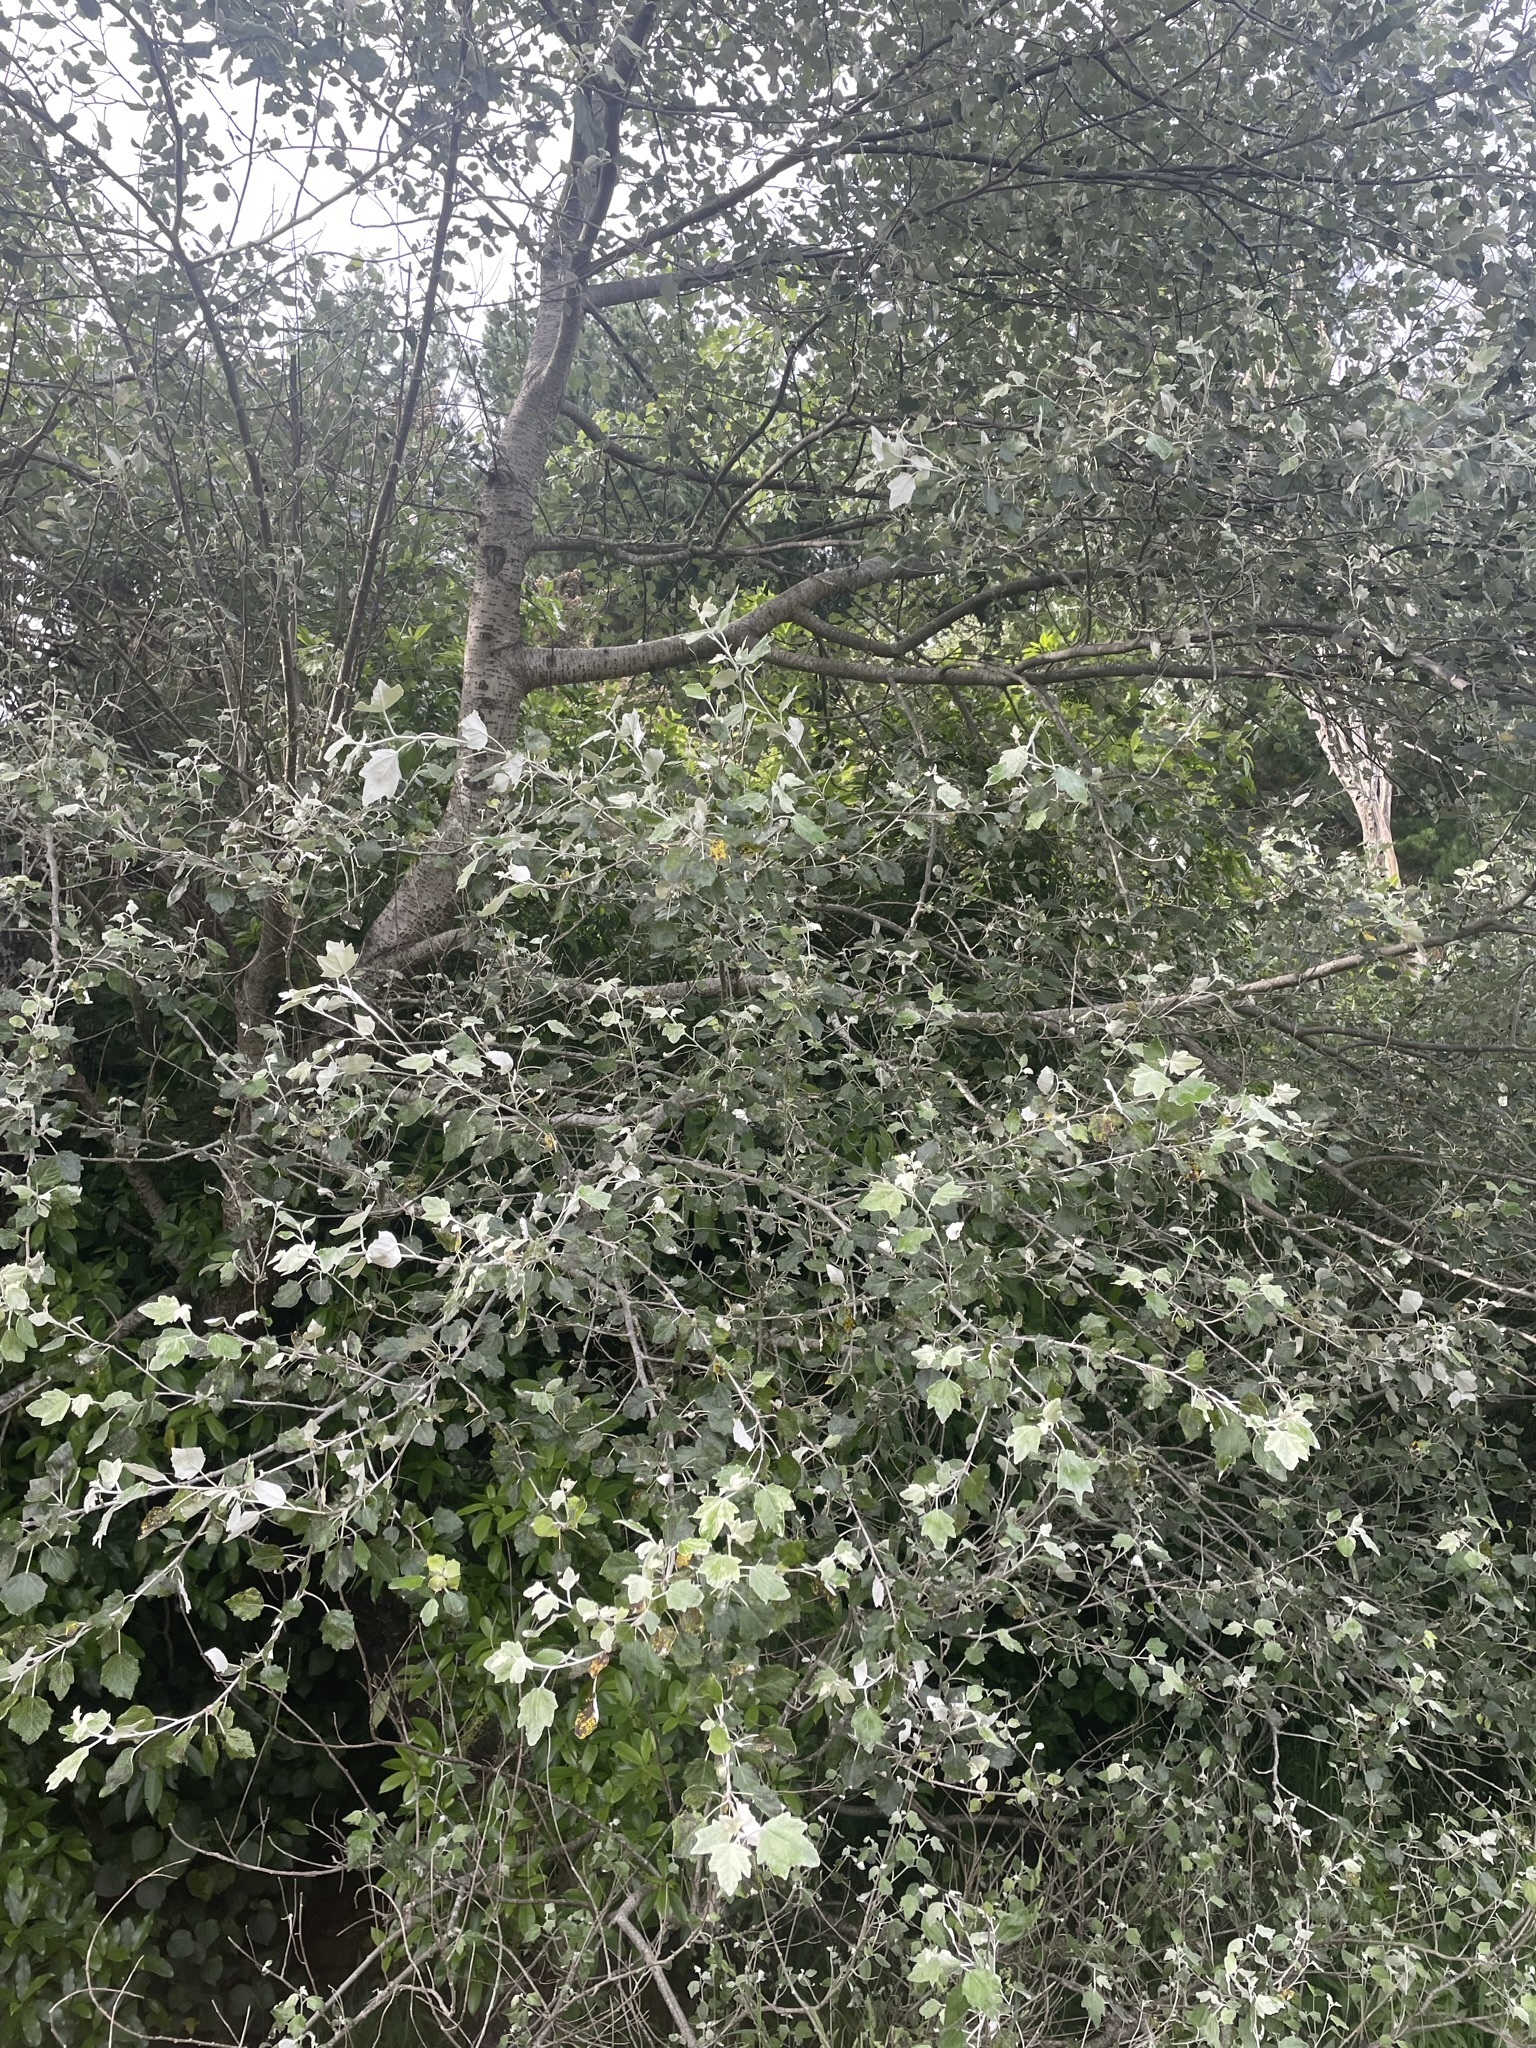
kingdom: Plantae
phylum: Tracheophyta
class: Magnoliopsida
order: Malpighiales
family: Salicaceae
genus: Populus
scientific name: Populus alba
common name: White poplar
